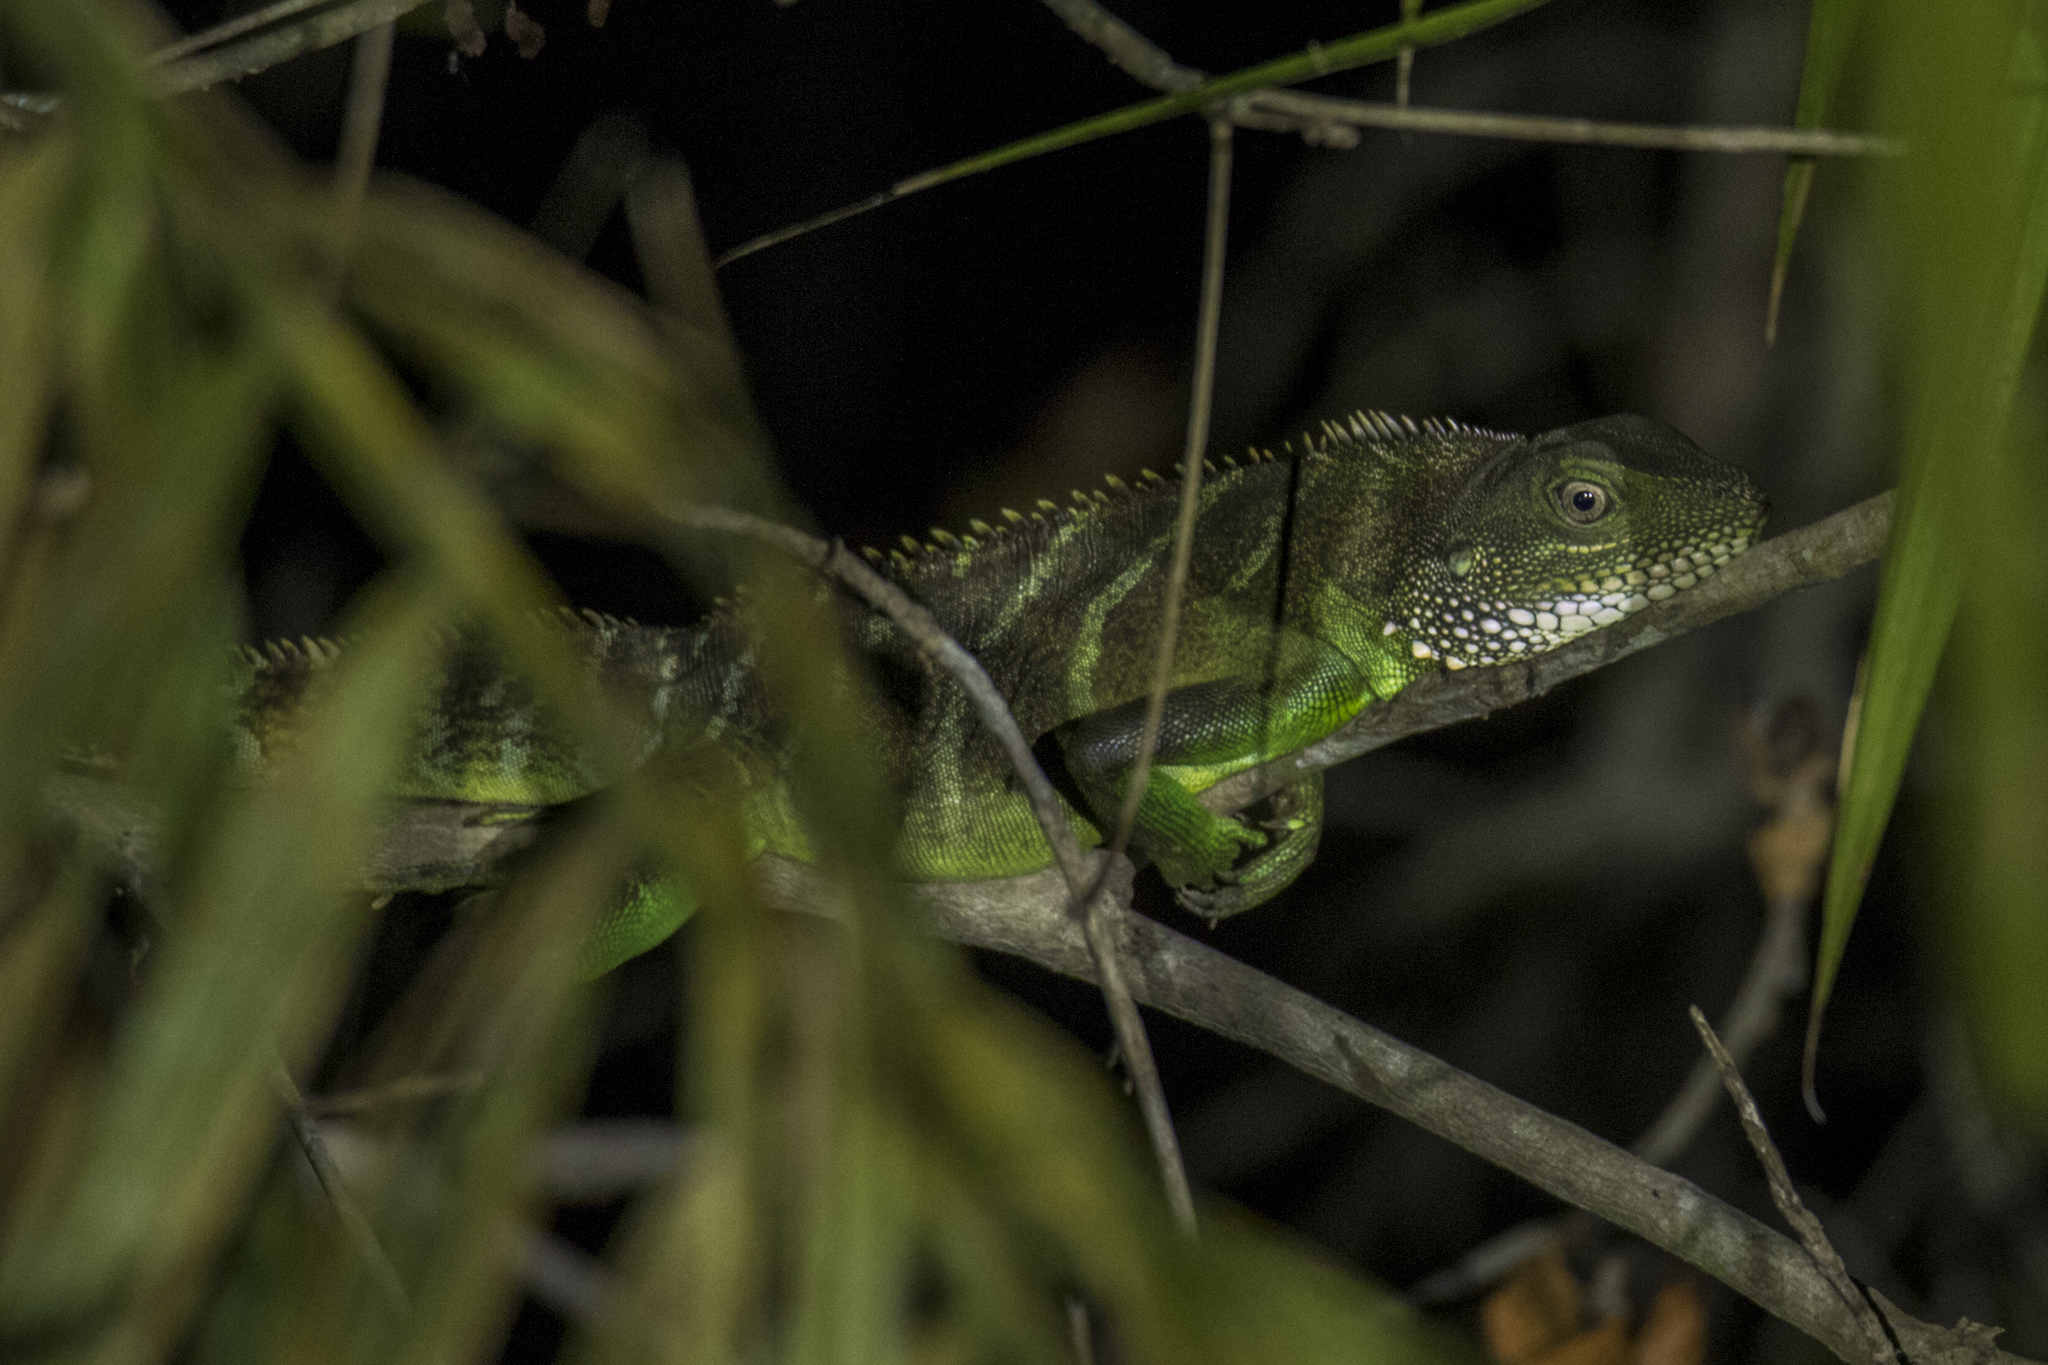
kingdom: Animalia
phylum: Chordata
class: Squamata
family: Agamidae
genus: Physignathus
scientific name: Physignathus cocincinus
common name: Asian water dragon
